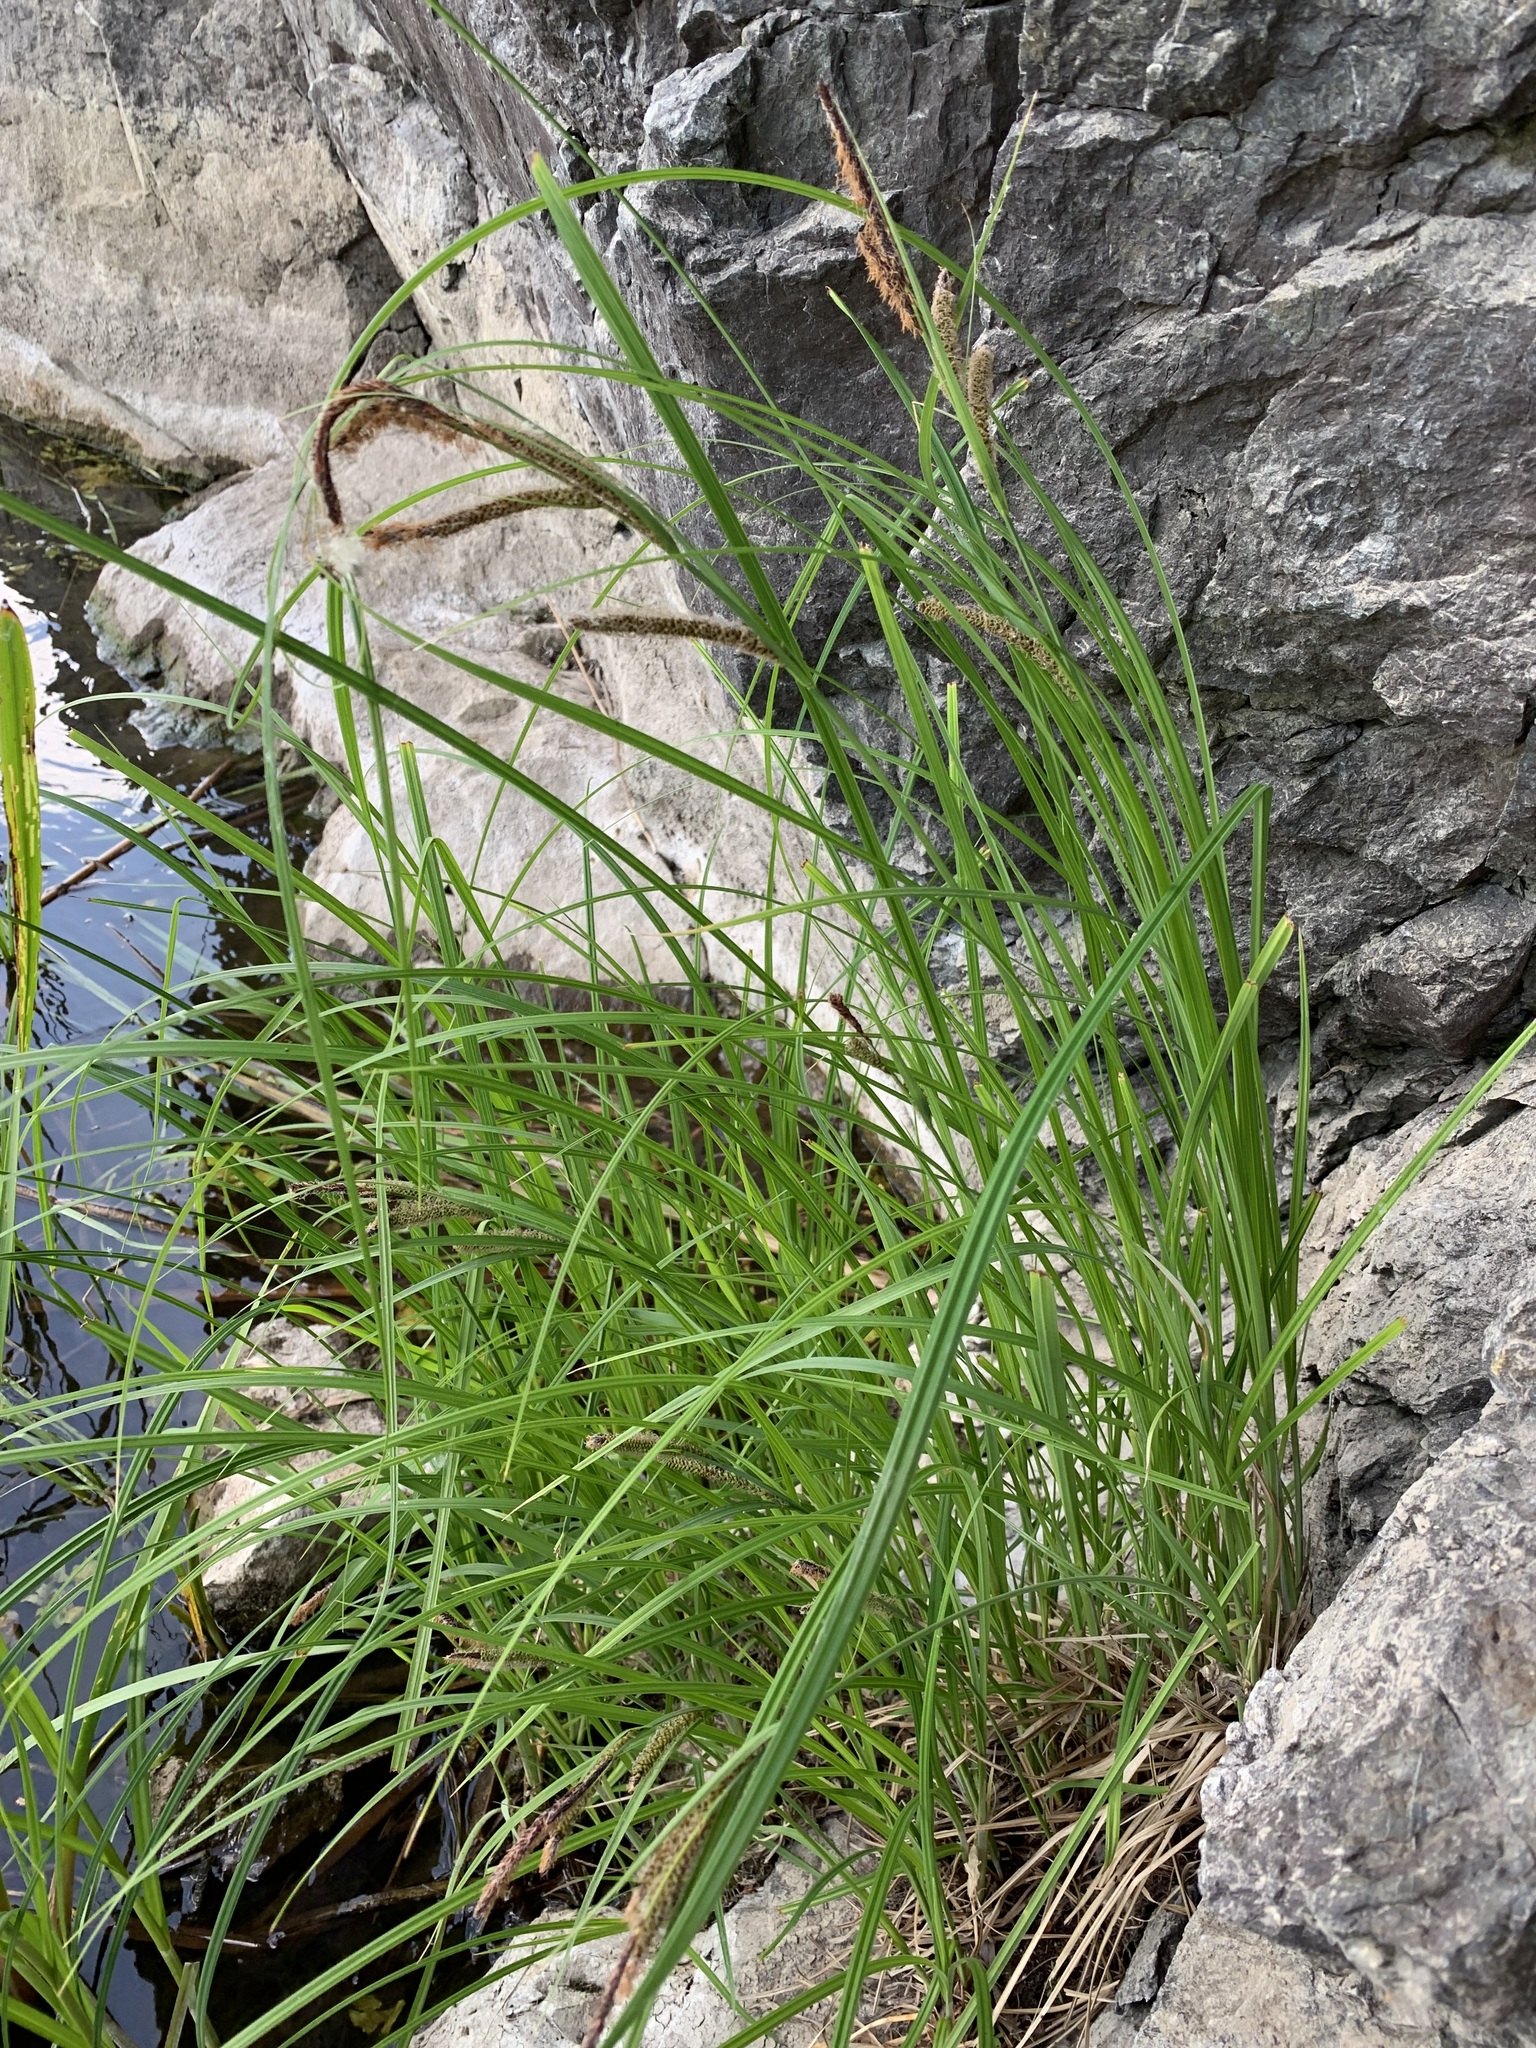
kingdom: Plantae
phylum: Tracheophyta
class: Liliopsida
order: Poales
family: Cyperaceae
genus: Carex
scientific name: Carex acuta
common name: Slender tufted-sedge
